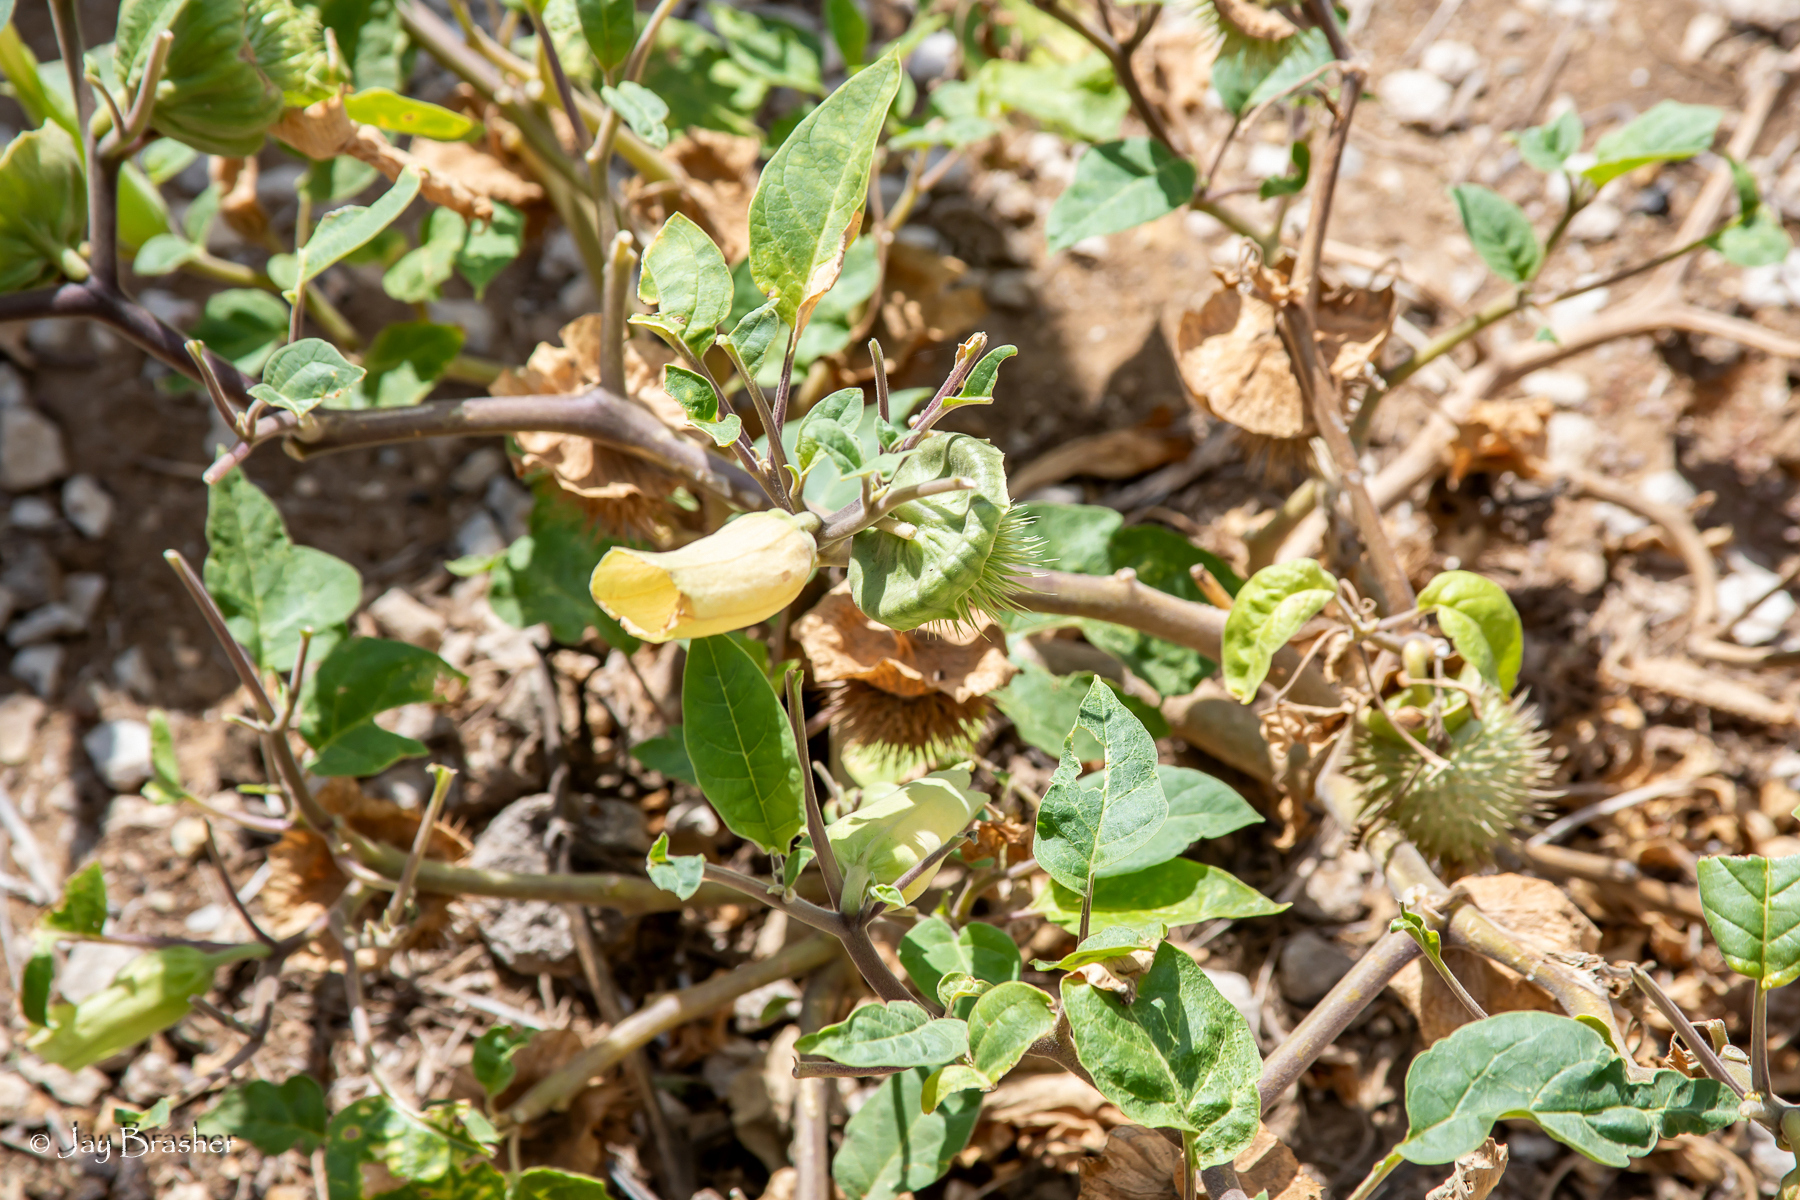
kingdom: Plantae
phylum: Tracheophyta
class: Magnoliopsida
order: Solanales
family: Solanaceae
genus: Datura
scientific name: Datura innoxia
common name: Downy thorn-apple
